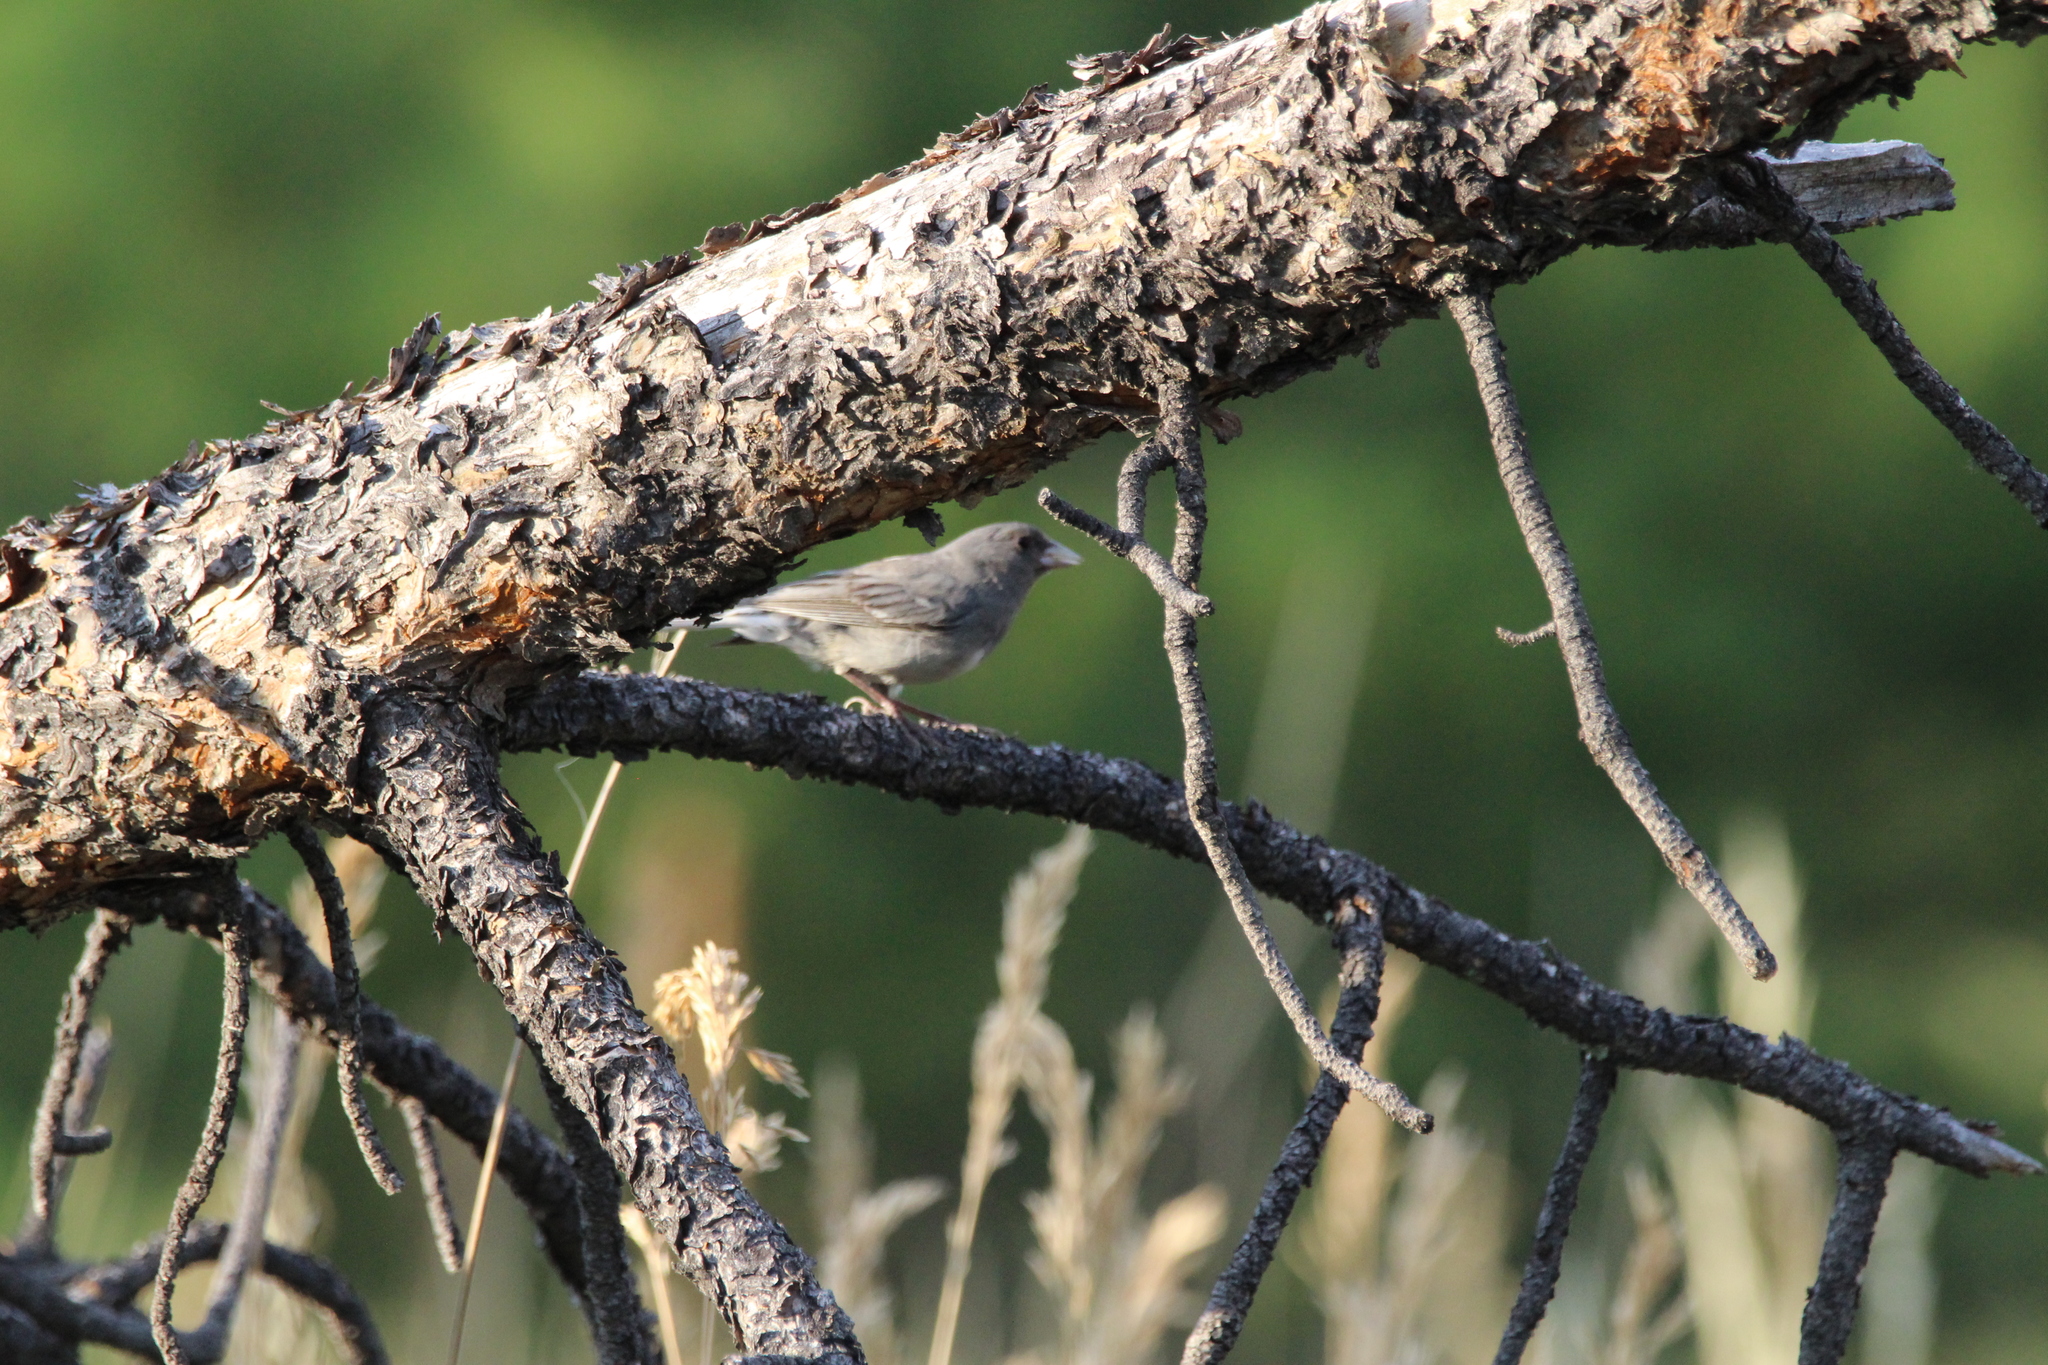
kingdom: Animalia
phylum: Chordata
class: Aves
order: Passeriformes
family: Passerellidae
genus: Junco
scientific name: Junco hyemalis
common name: Dark-eyed junco
